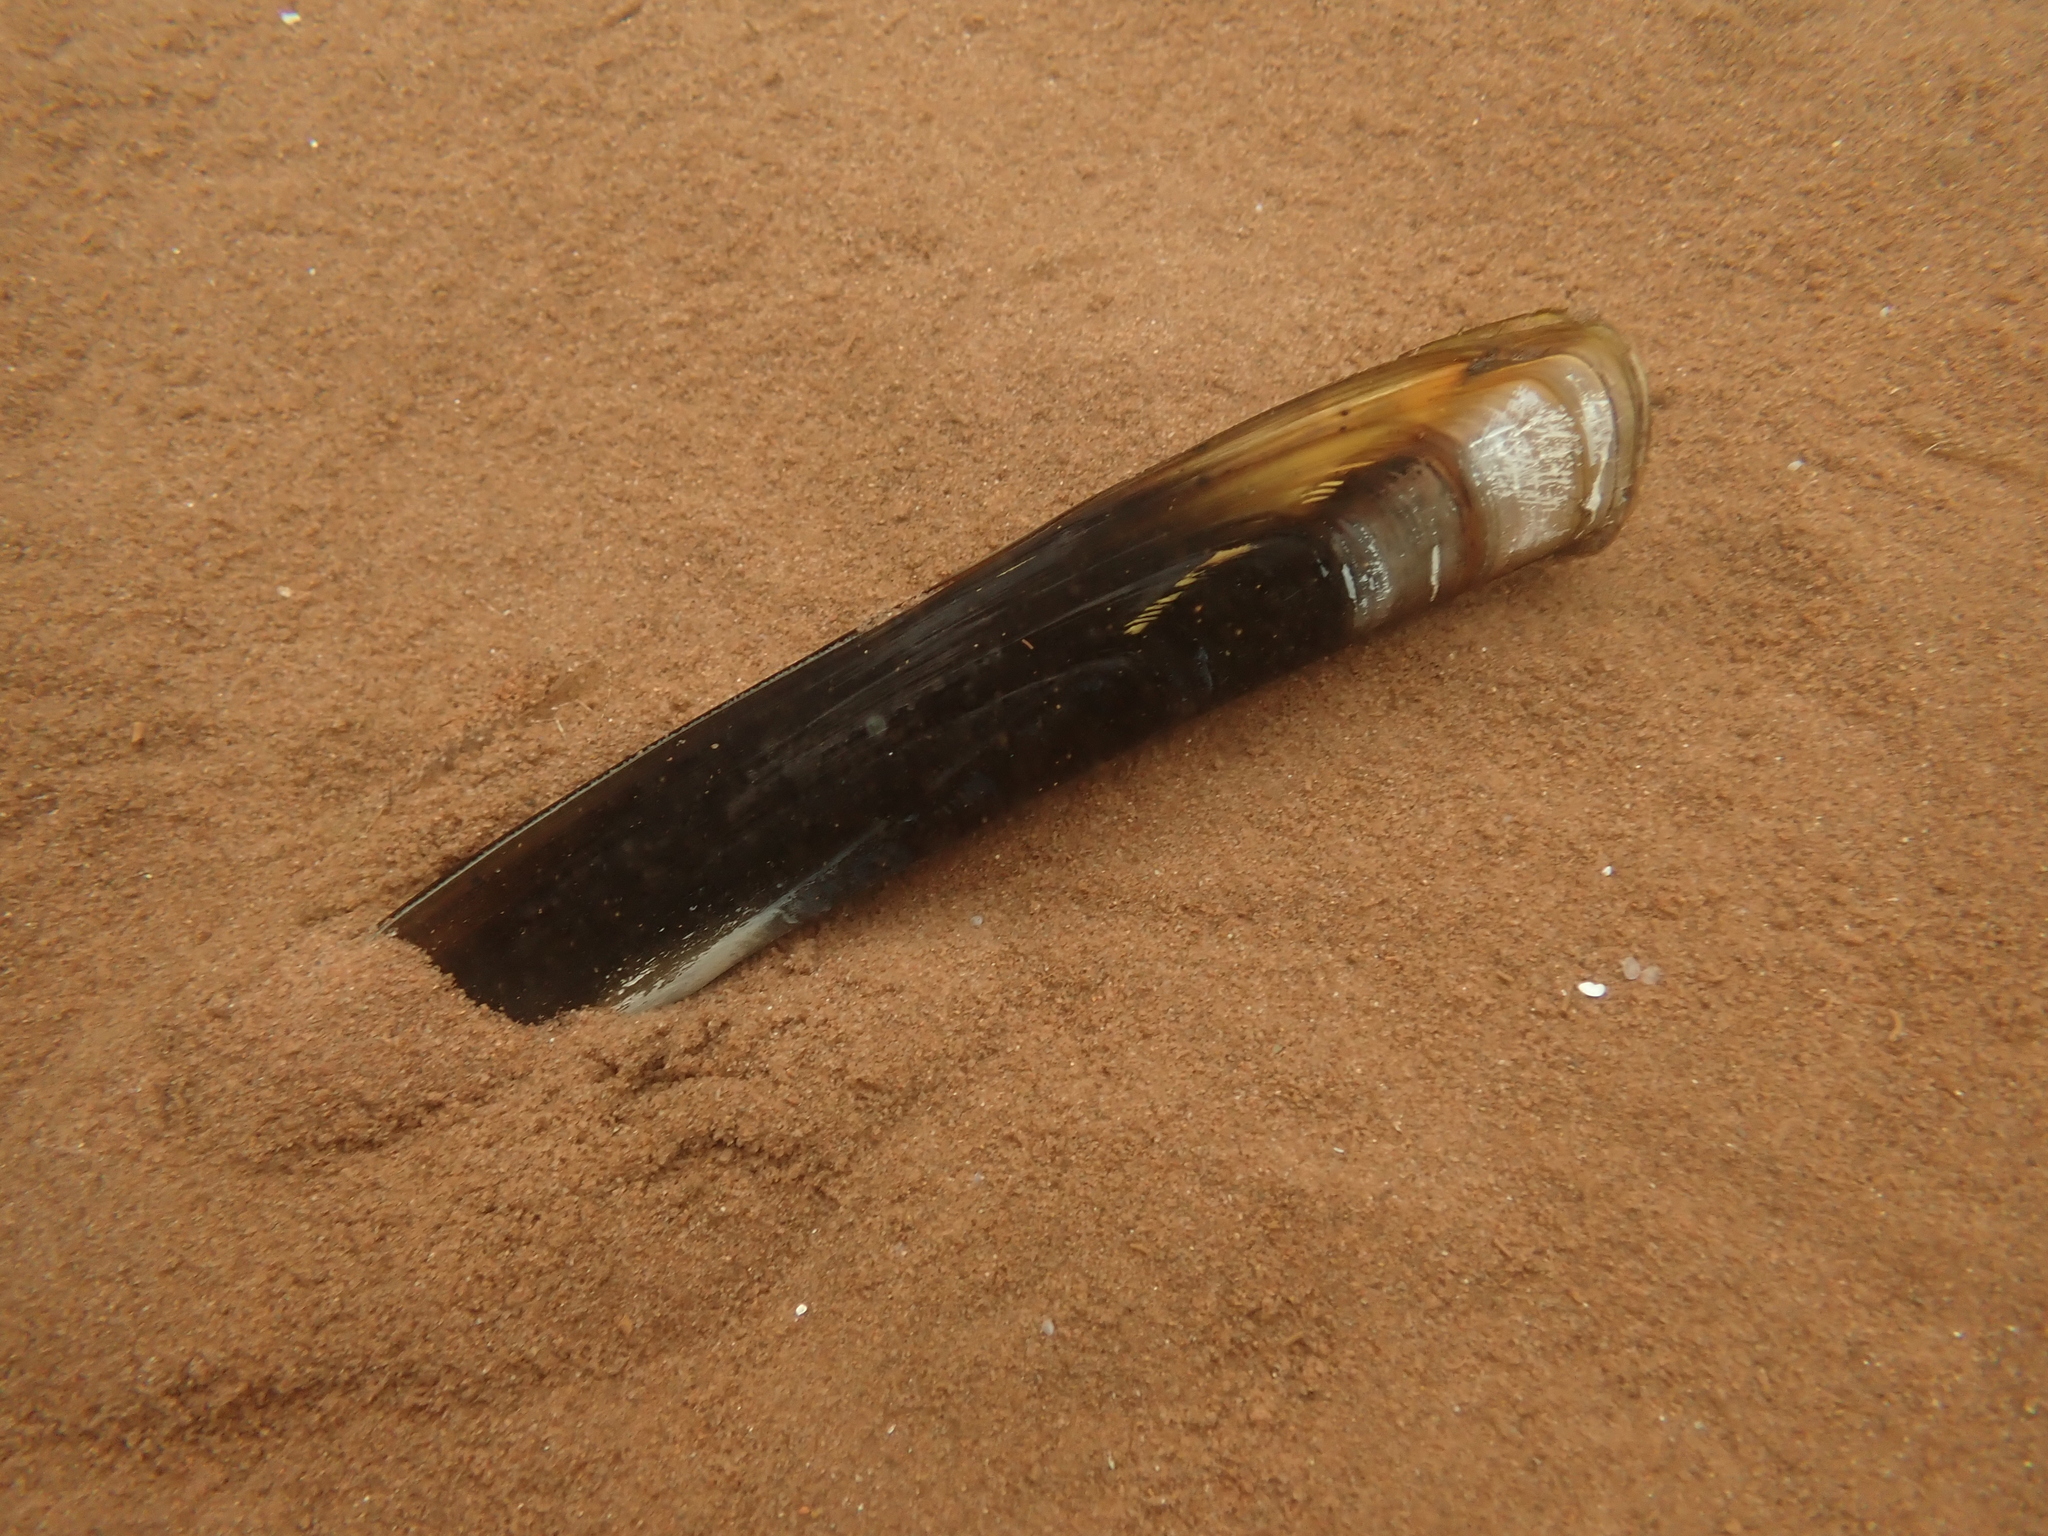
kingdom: Animalia
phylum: Mollusca
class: Bivalvia
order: Adapedonta
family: Pharidae
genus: Ensis
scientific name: Ensis leei
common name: American jack knife clam
